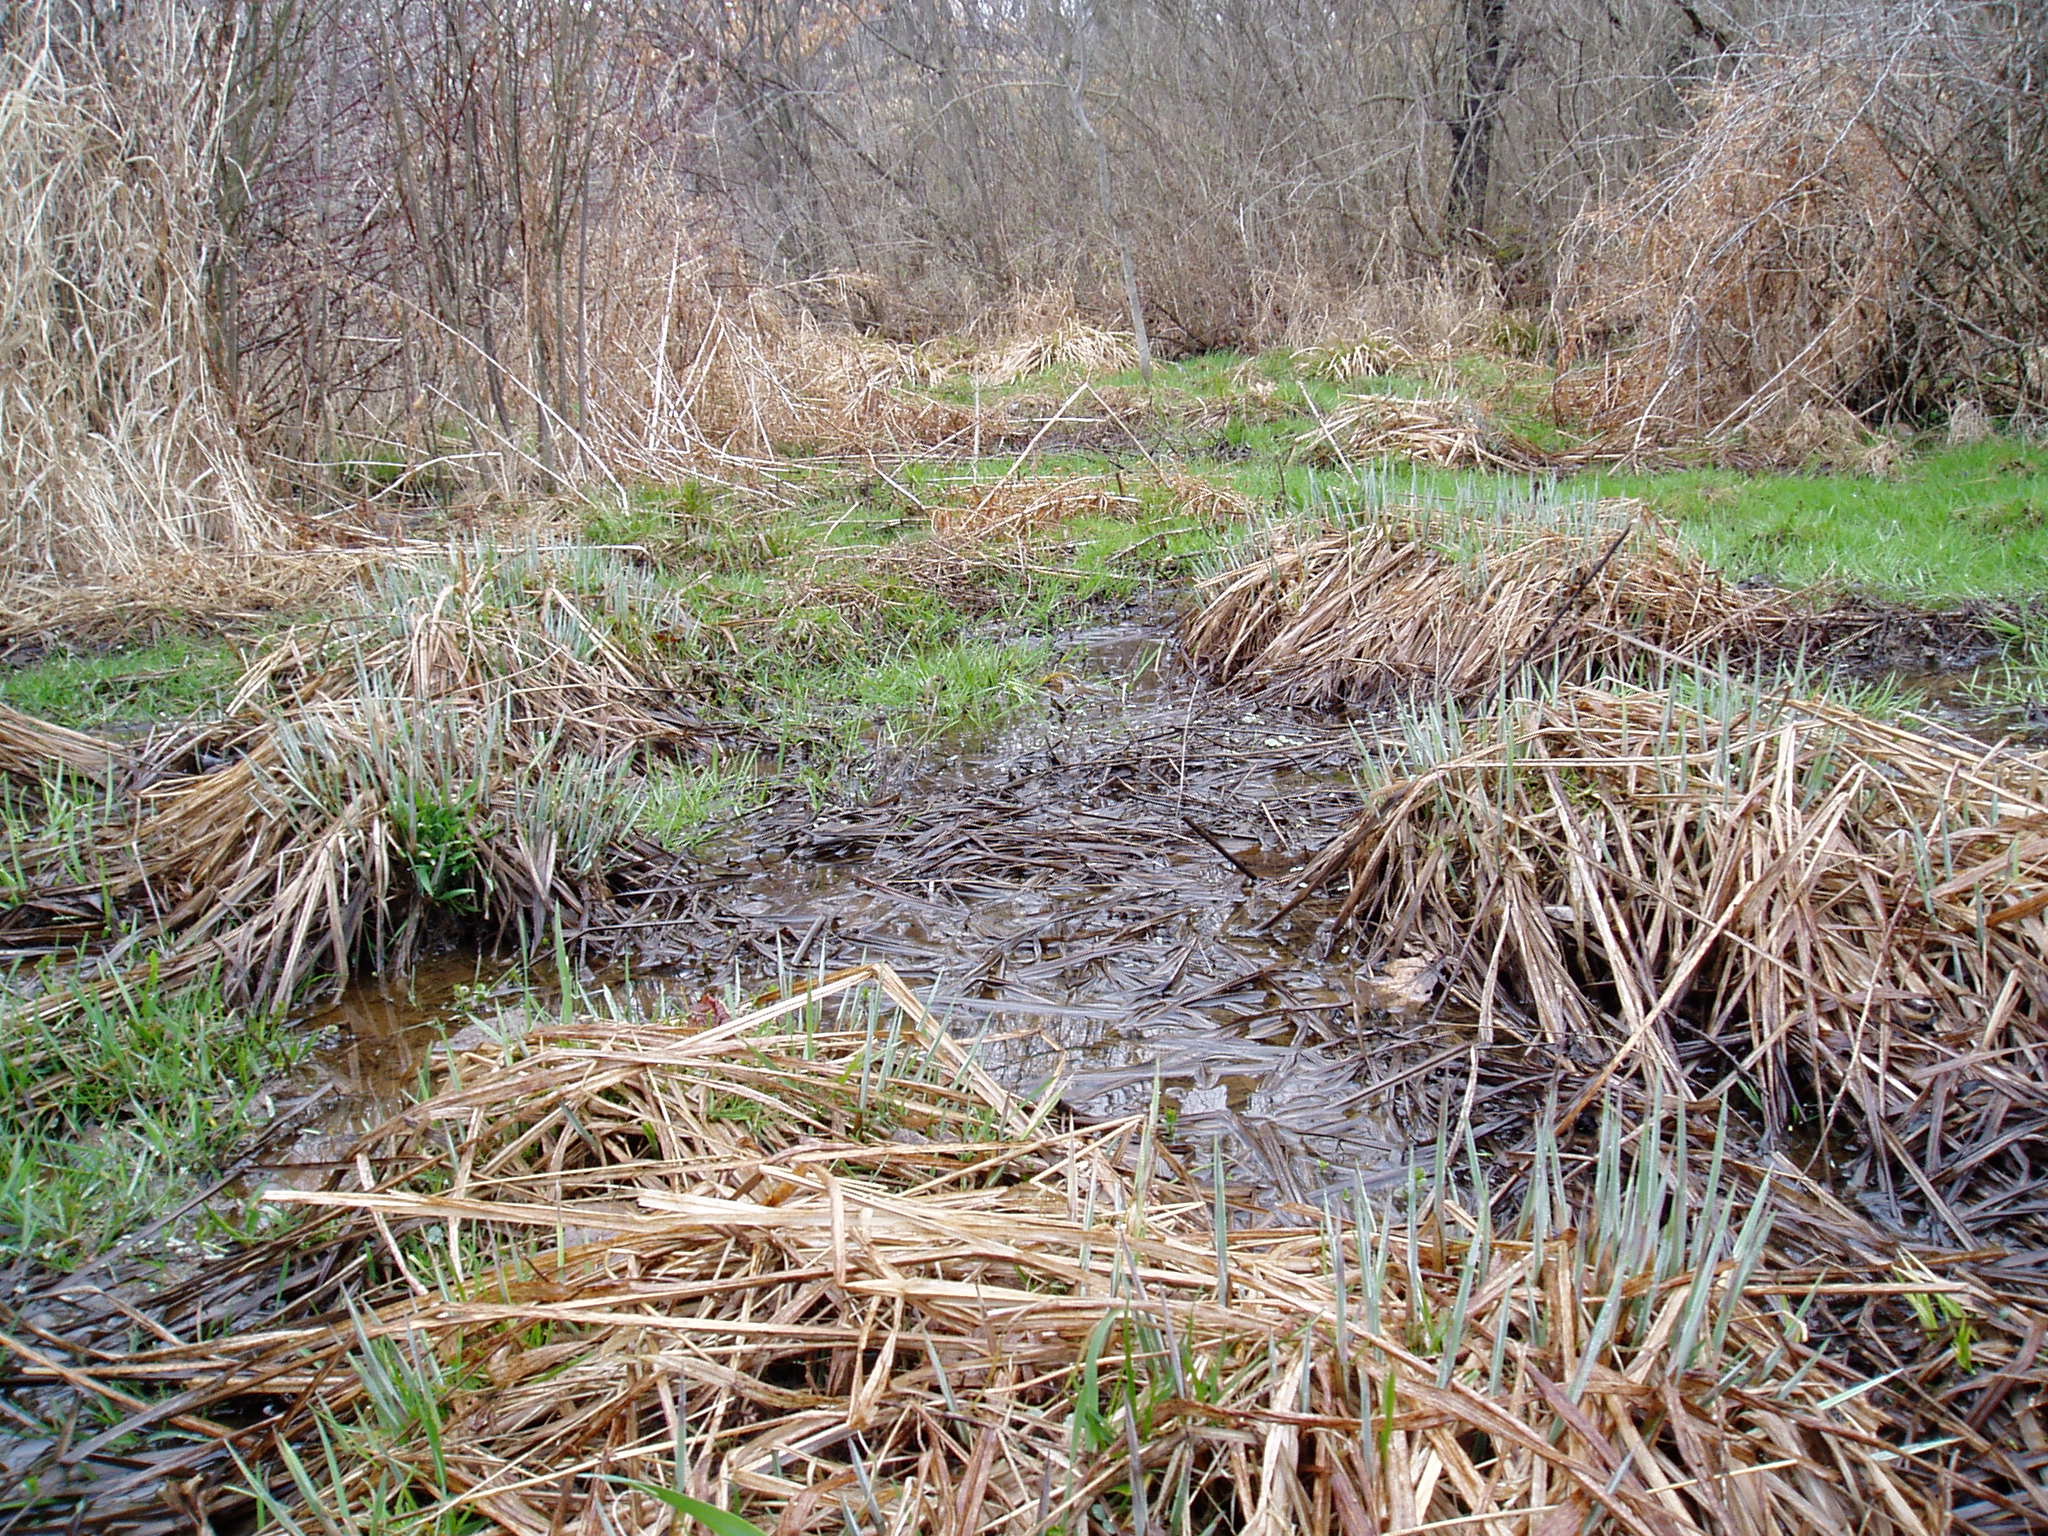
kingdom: Plantae
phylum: Tracheophyta
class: Liliopsida
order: Poales
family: Cyperaceae
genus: Carex
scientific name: Carex stricta
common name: Hummock sedge
